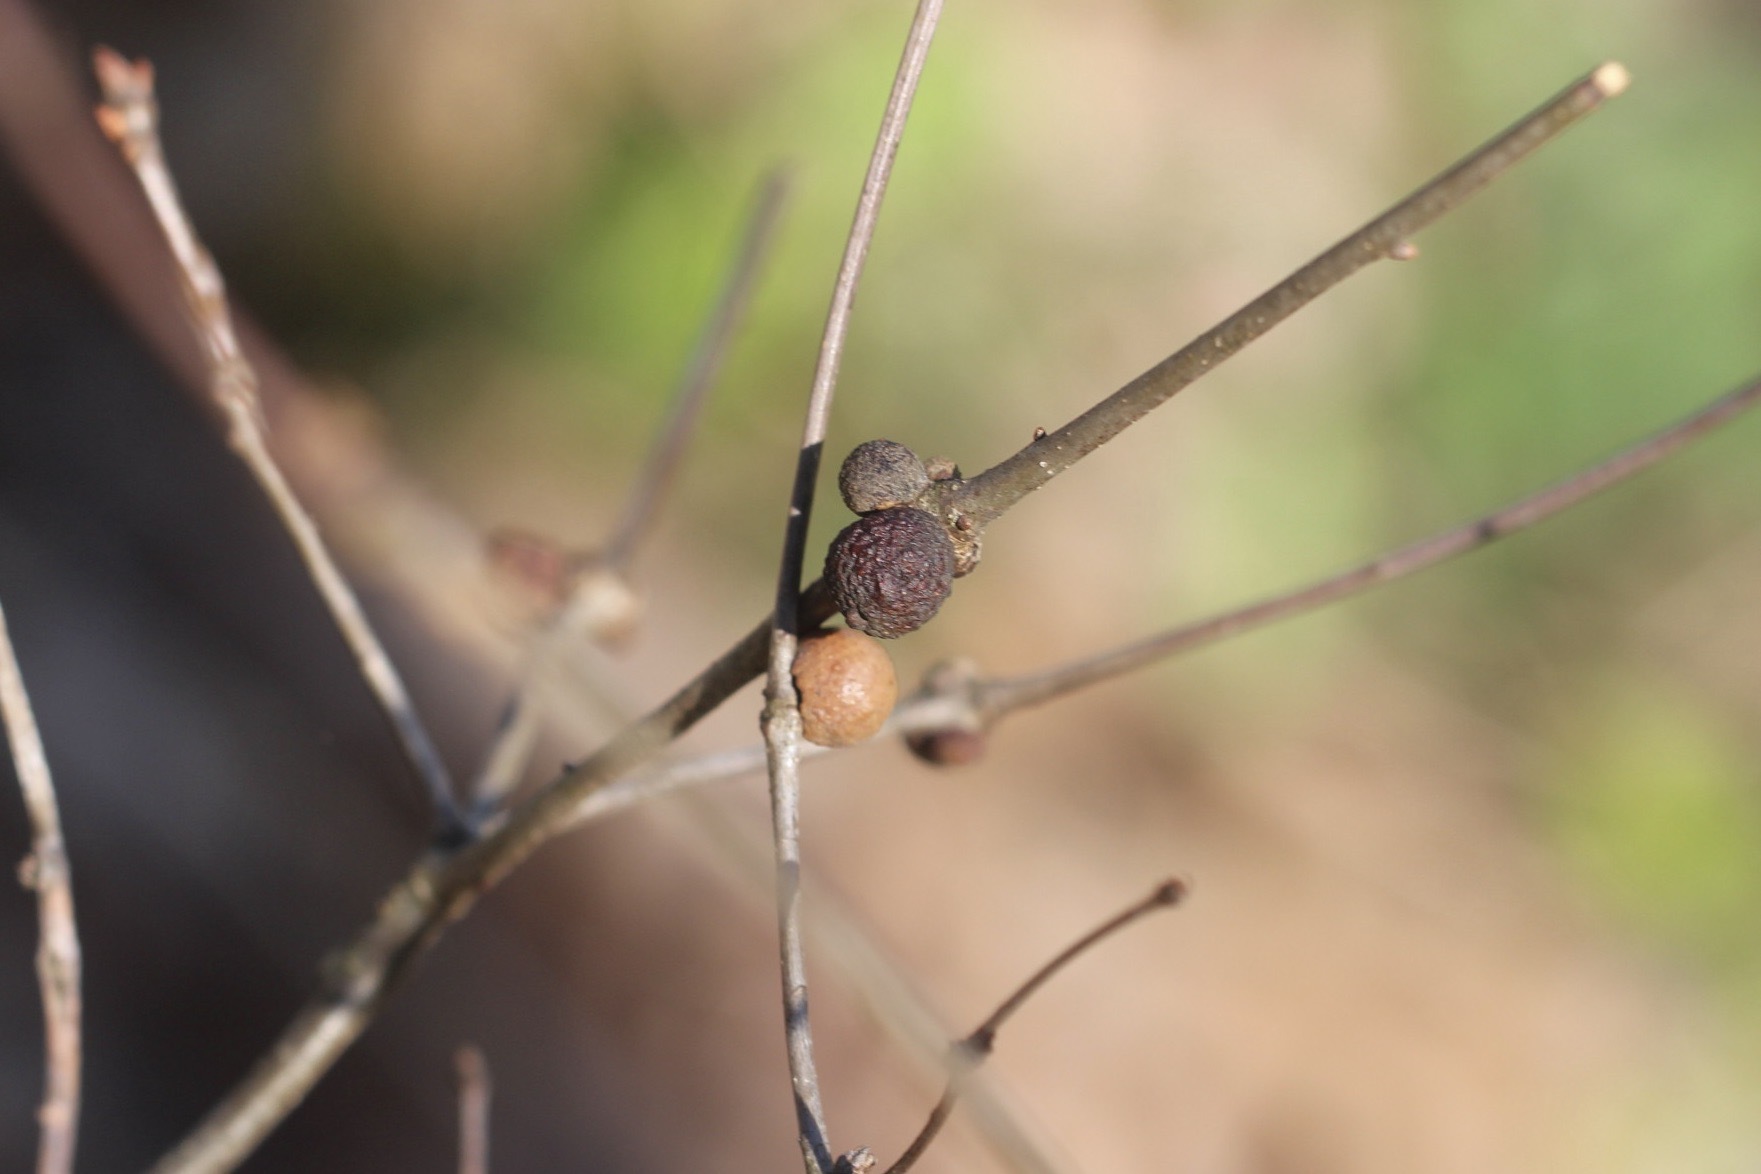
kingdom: Animalia
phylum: Arthropoda
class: Insecta
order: Hymenoptera
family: Cynipidae
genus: Disholcaspis
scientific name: Disholcaspis quercusglobulus
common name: Round bullet gall wasp
